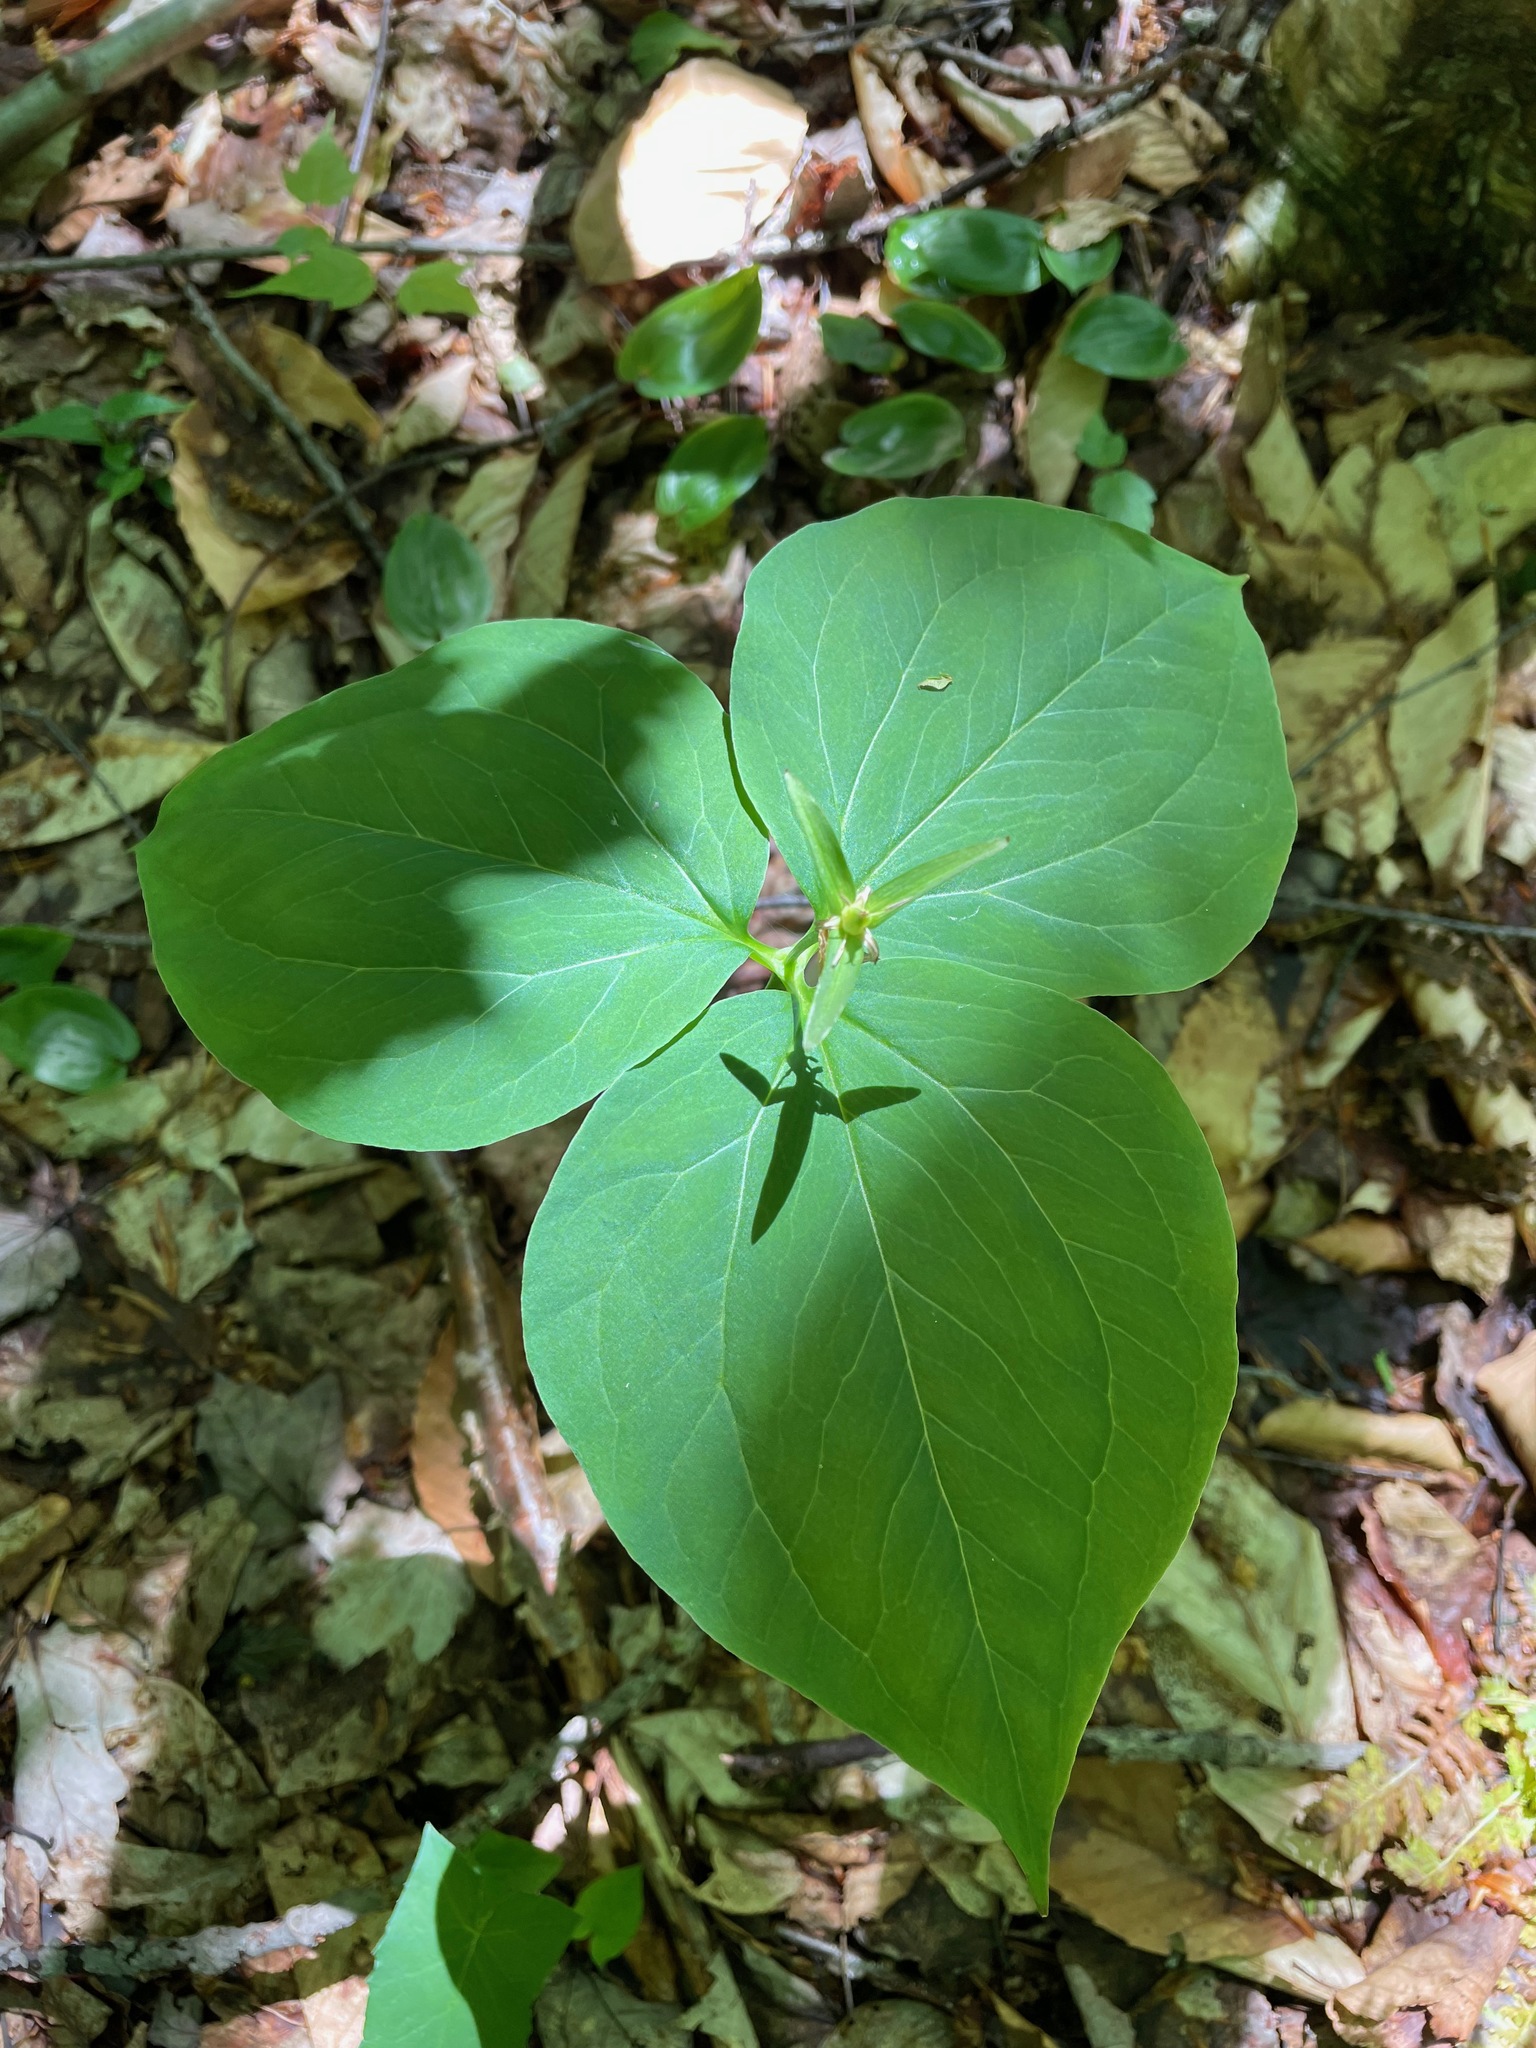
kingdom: Plantae
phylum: Tracheophyta
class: Liliopsida
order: Liliales
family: Melanthiaceae
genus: Trillium
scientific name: Trillium undulatum
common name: Paint trillium
